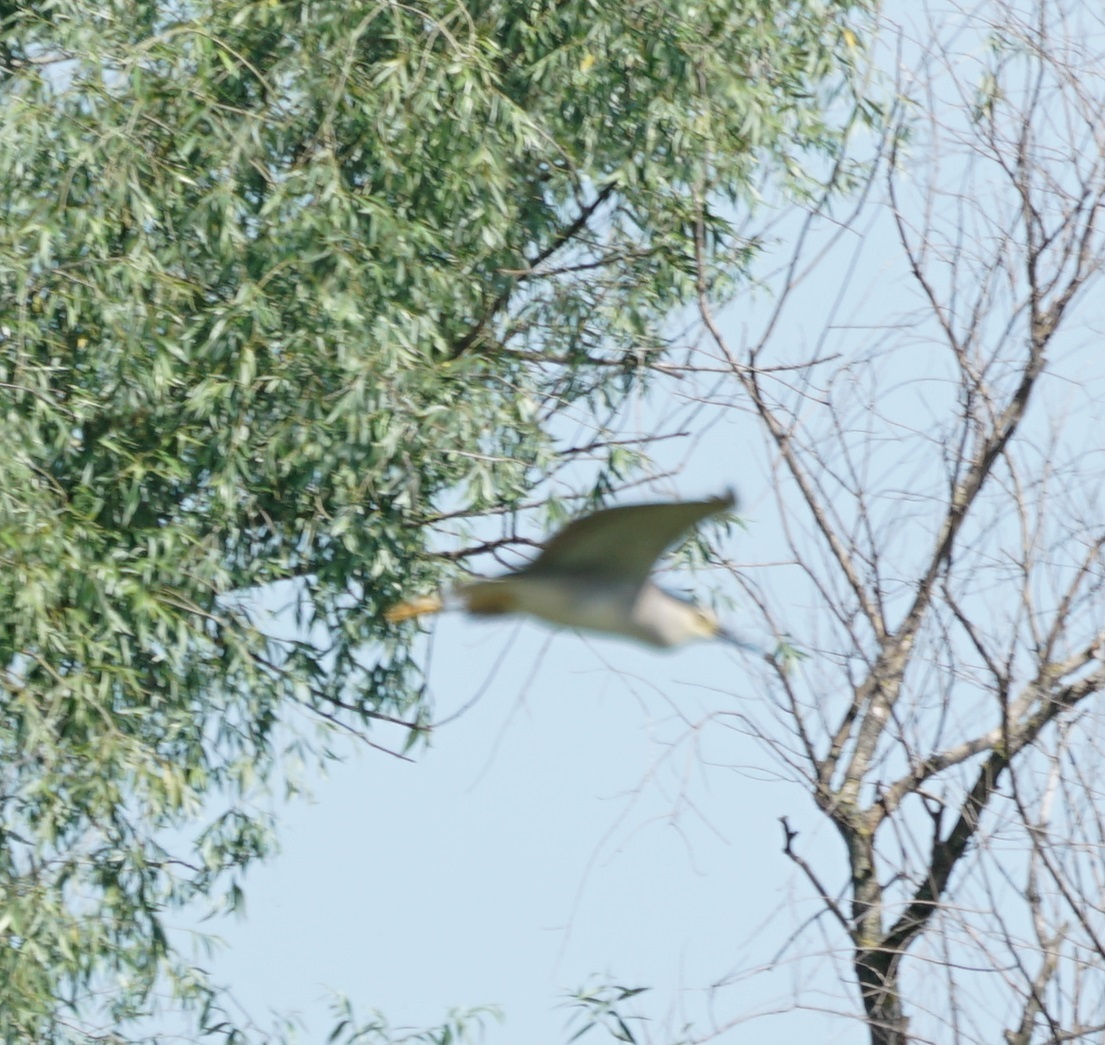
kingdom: Animalia
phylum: Chordata
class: Aves
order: Pelecaniformes
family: Ardeidae
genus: Nycticorax
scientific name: Nycticorax nycticorax
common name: Black-crowned night heron
